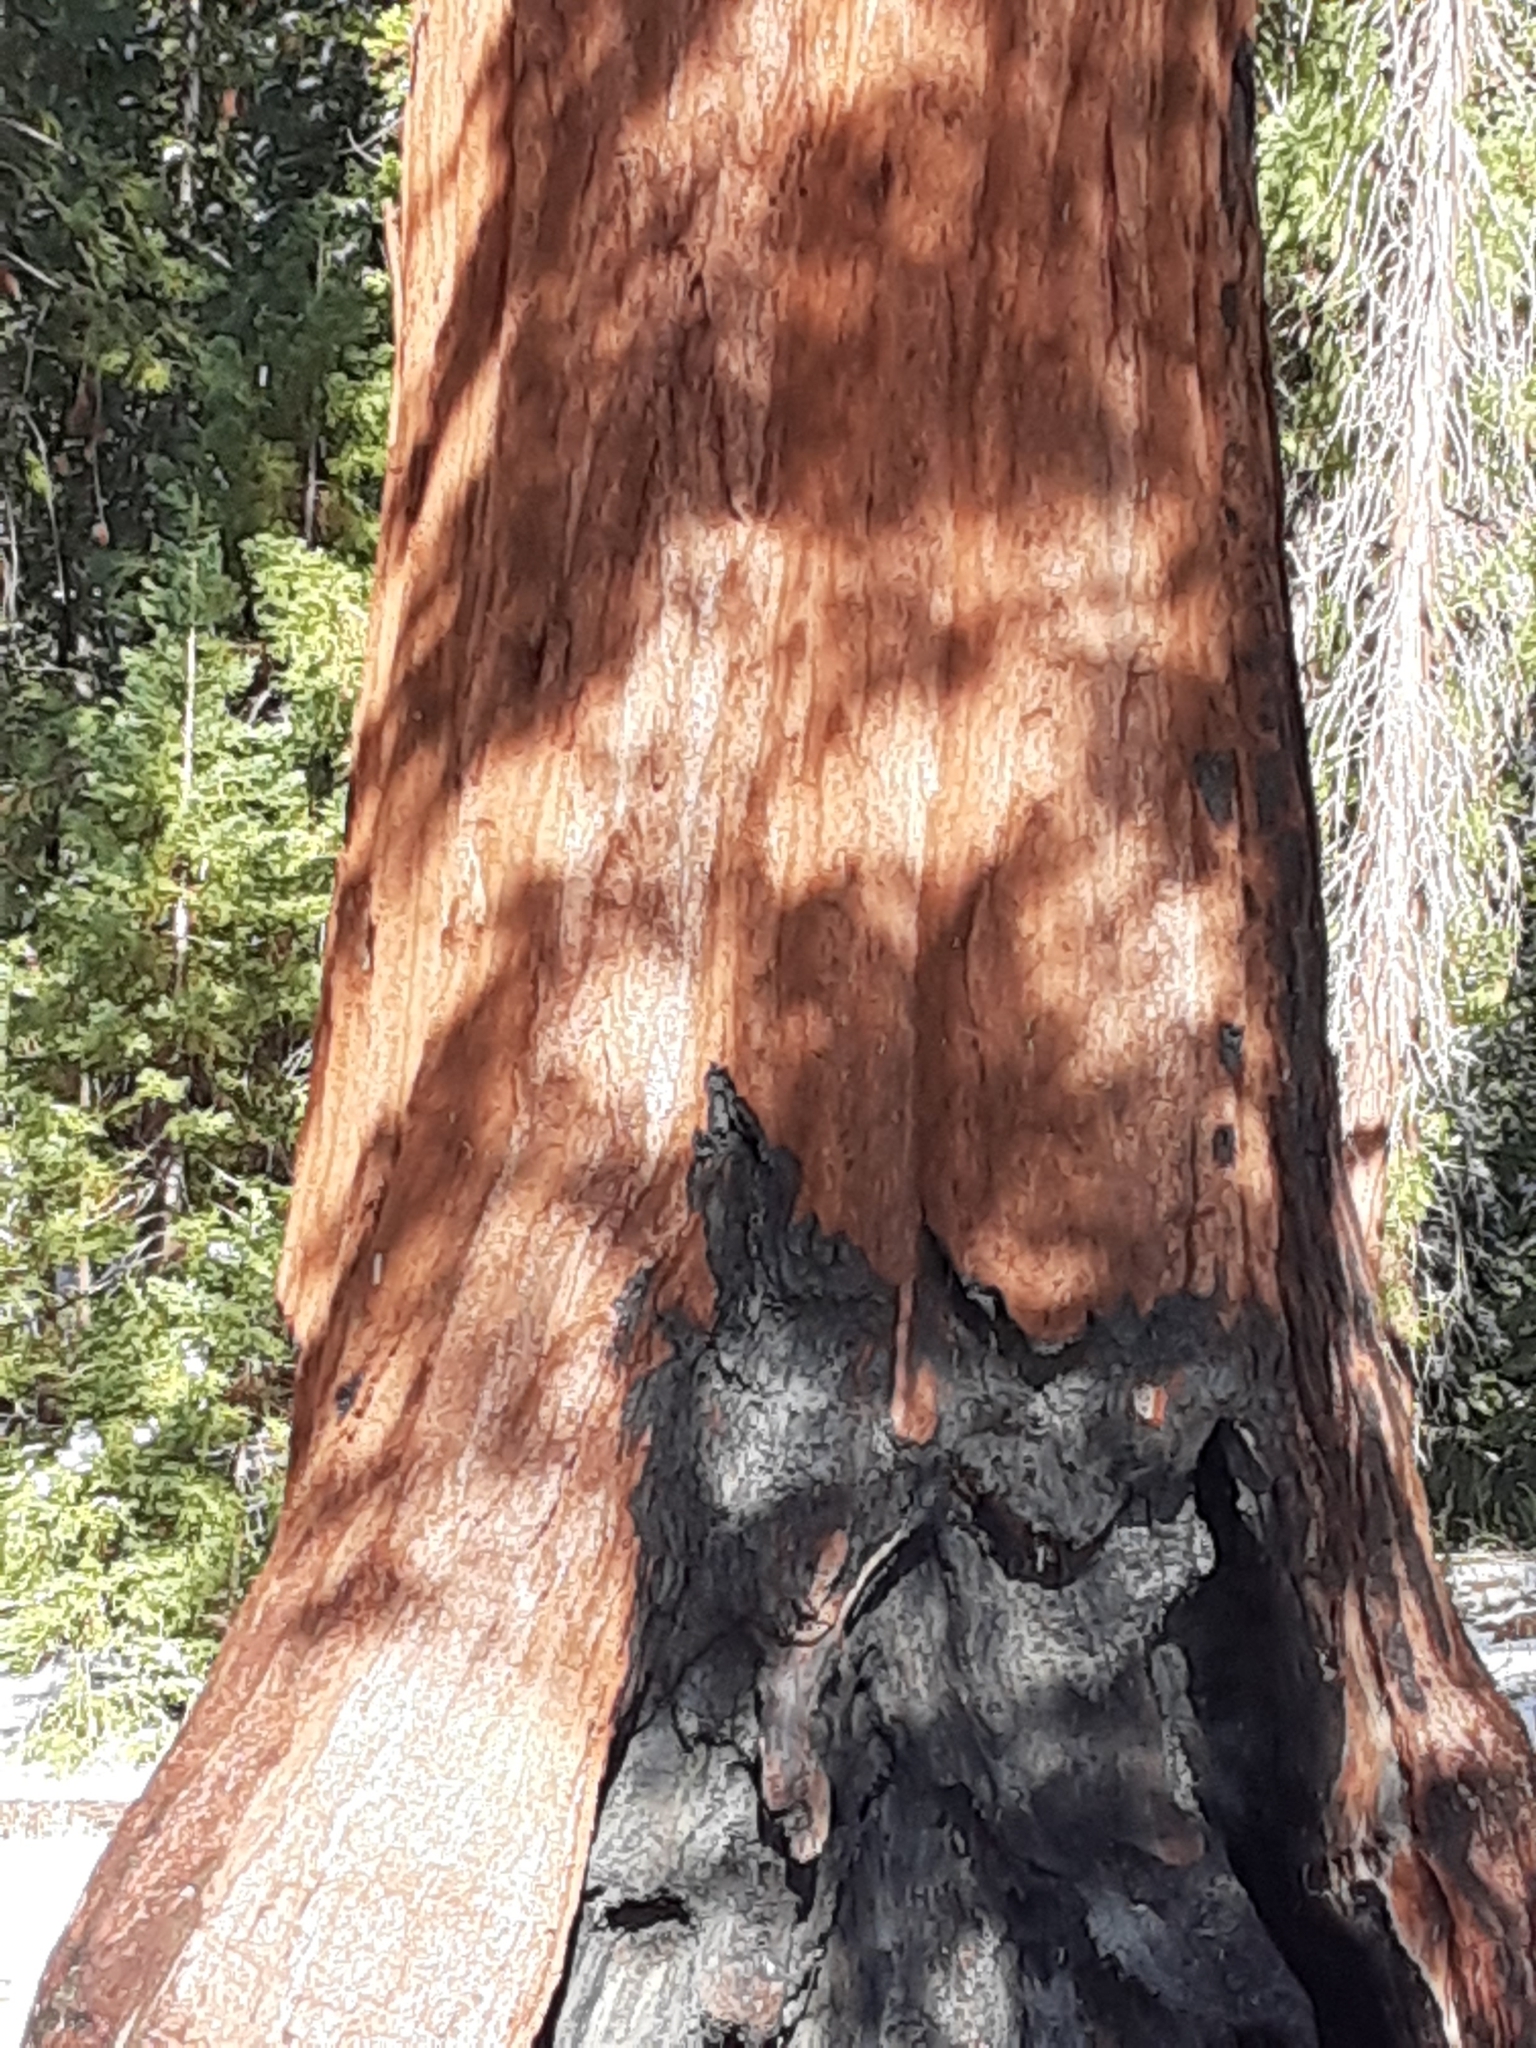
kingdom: Plantae
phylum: Tracheophyta
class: Pinopsida
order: Pinales
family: Cupressaceae
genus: Sequoiadendron
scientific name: Sequoiadendron giganteum
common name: Wellingtonia
